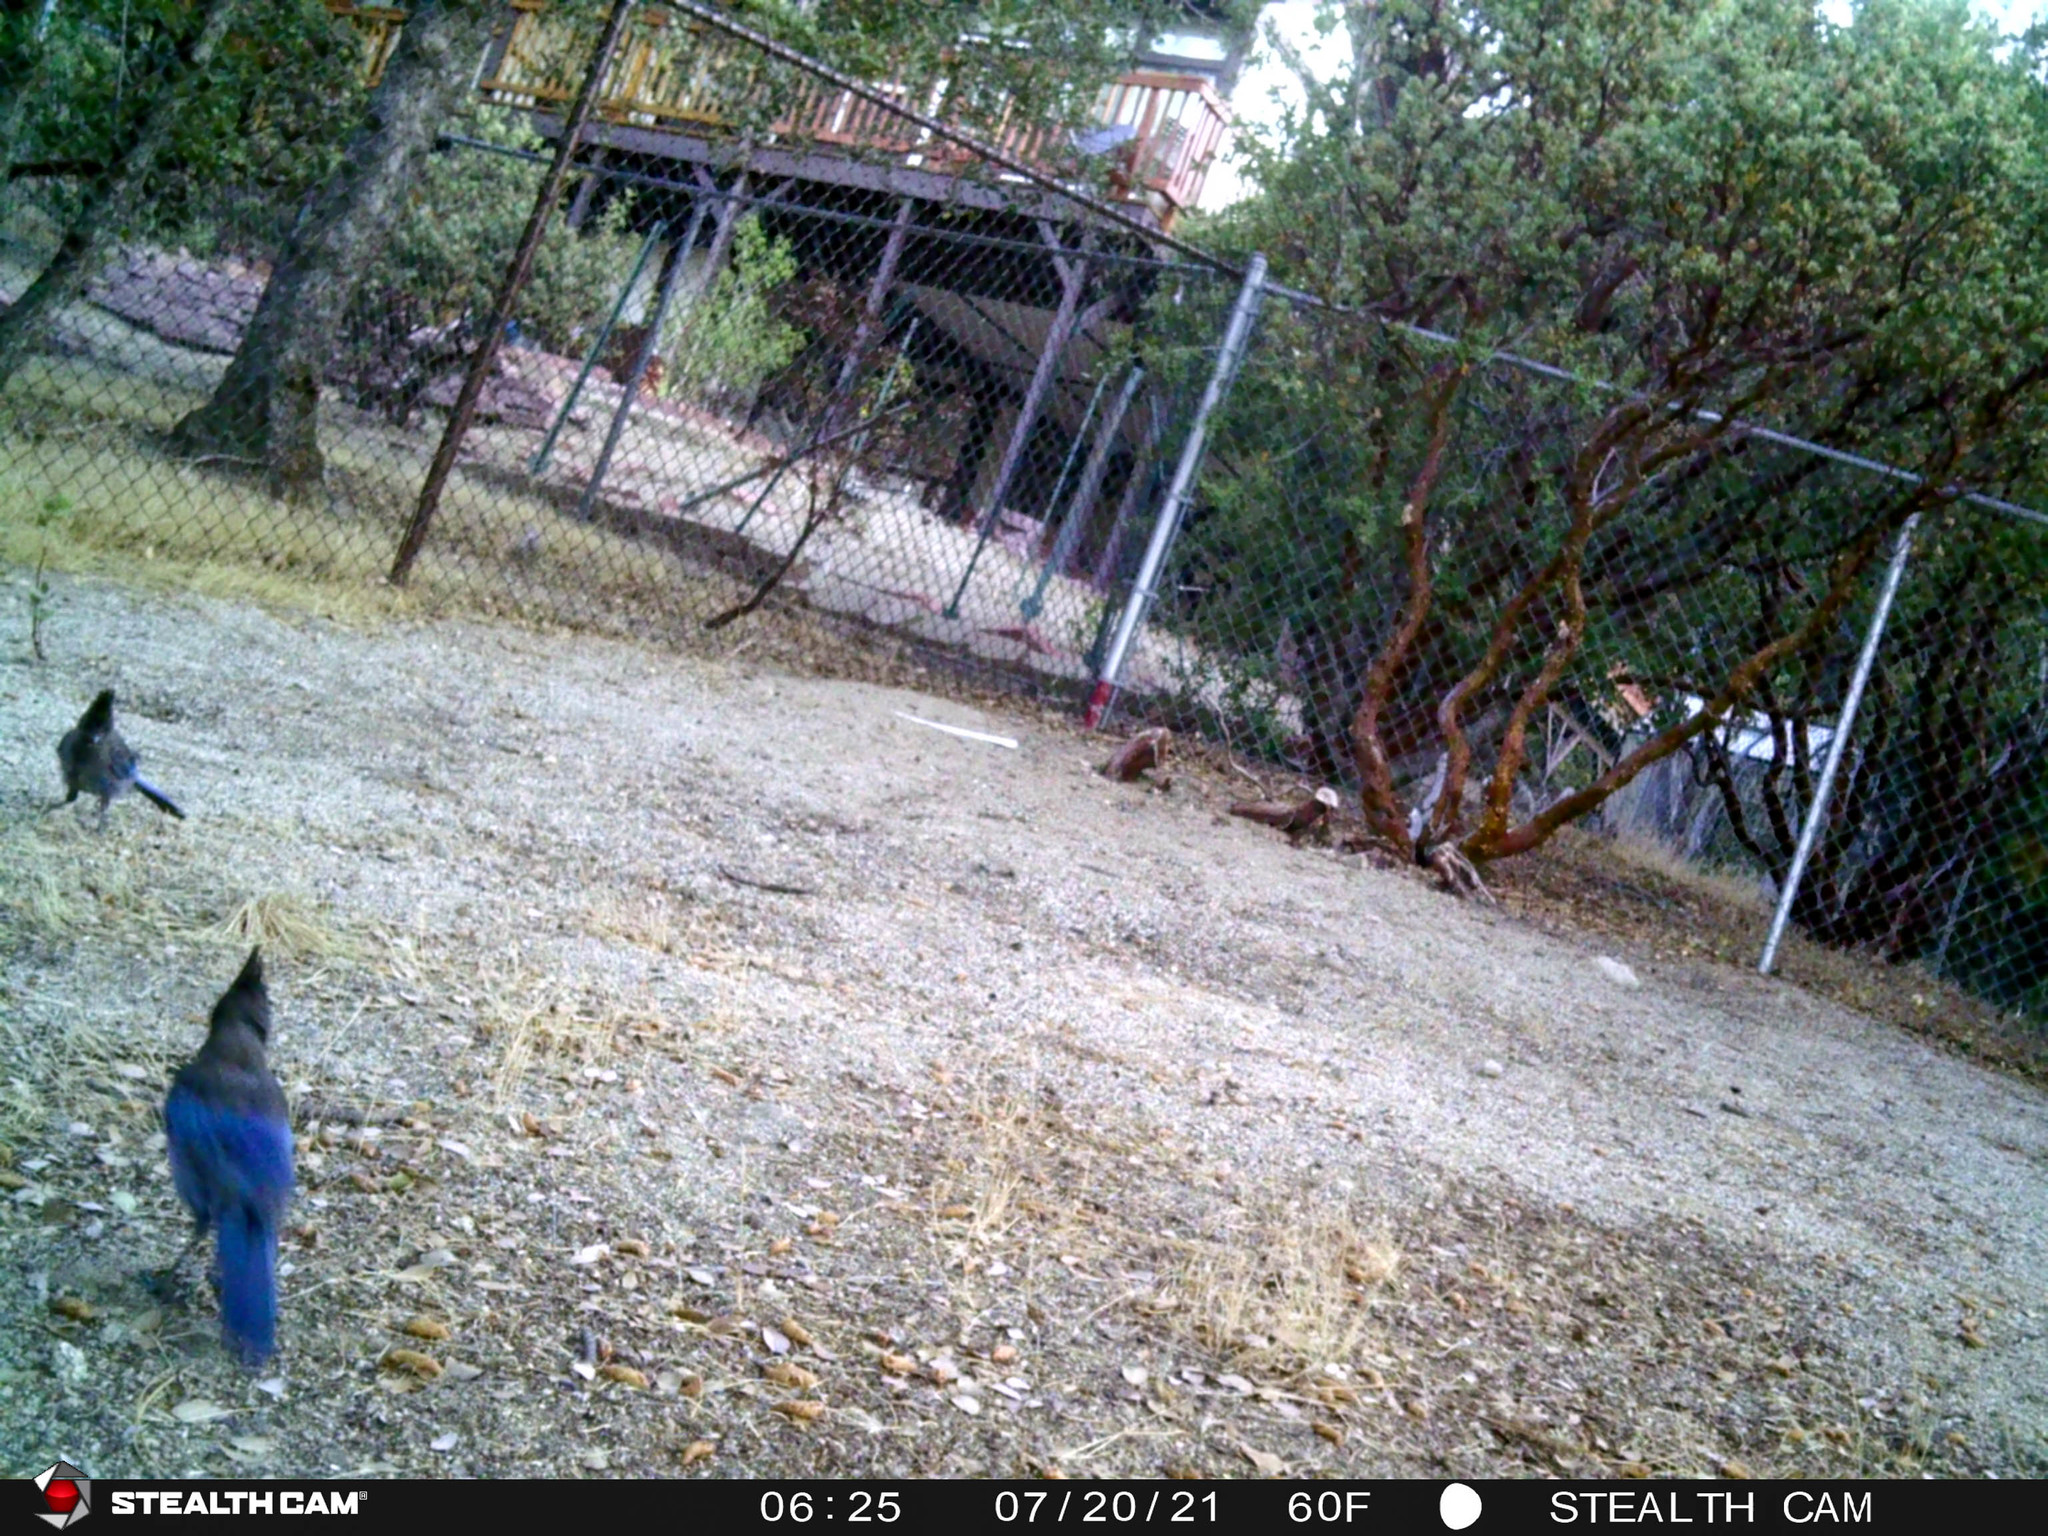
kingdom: Animalia
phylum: Chordata
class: Aves
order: Passeriformes
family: Corvidae
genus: Cyanocitta
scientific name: Cyanocitta stelleri
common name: Steller's jay
